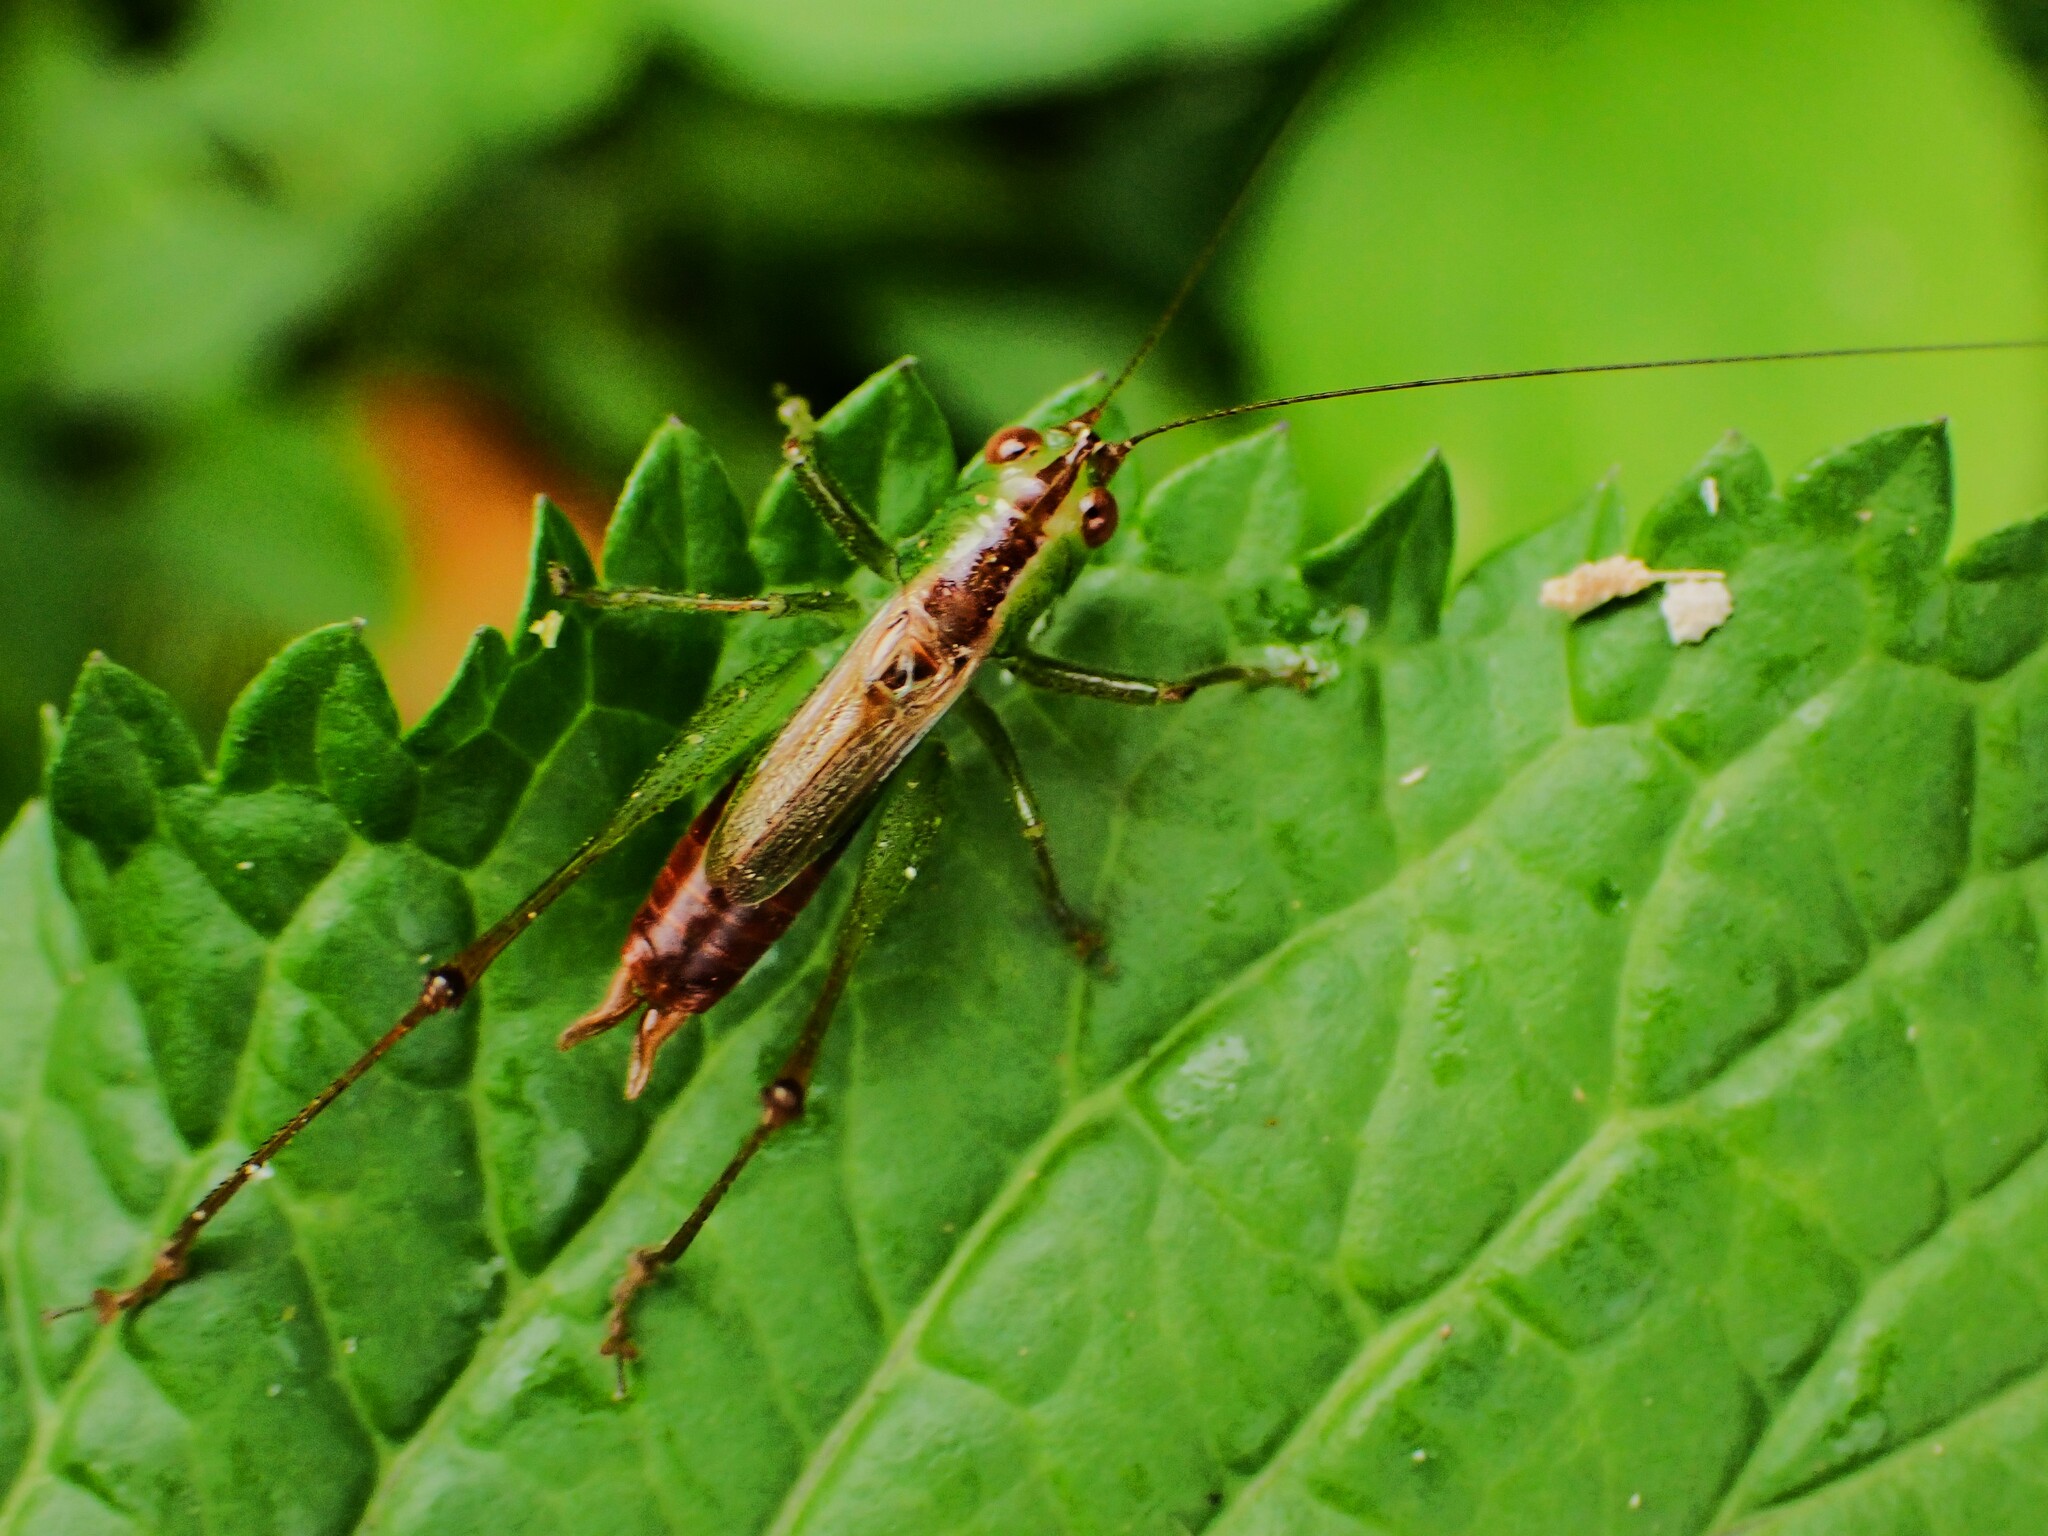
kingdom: Animalia
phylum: Arthropoda
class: Insecta
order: Orthoptera
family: Tettigoniidae
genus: Conocephalus
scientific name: Conocephalus saltator
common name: Katydid
